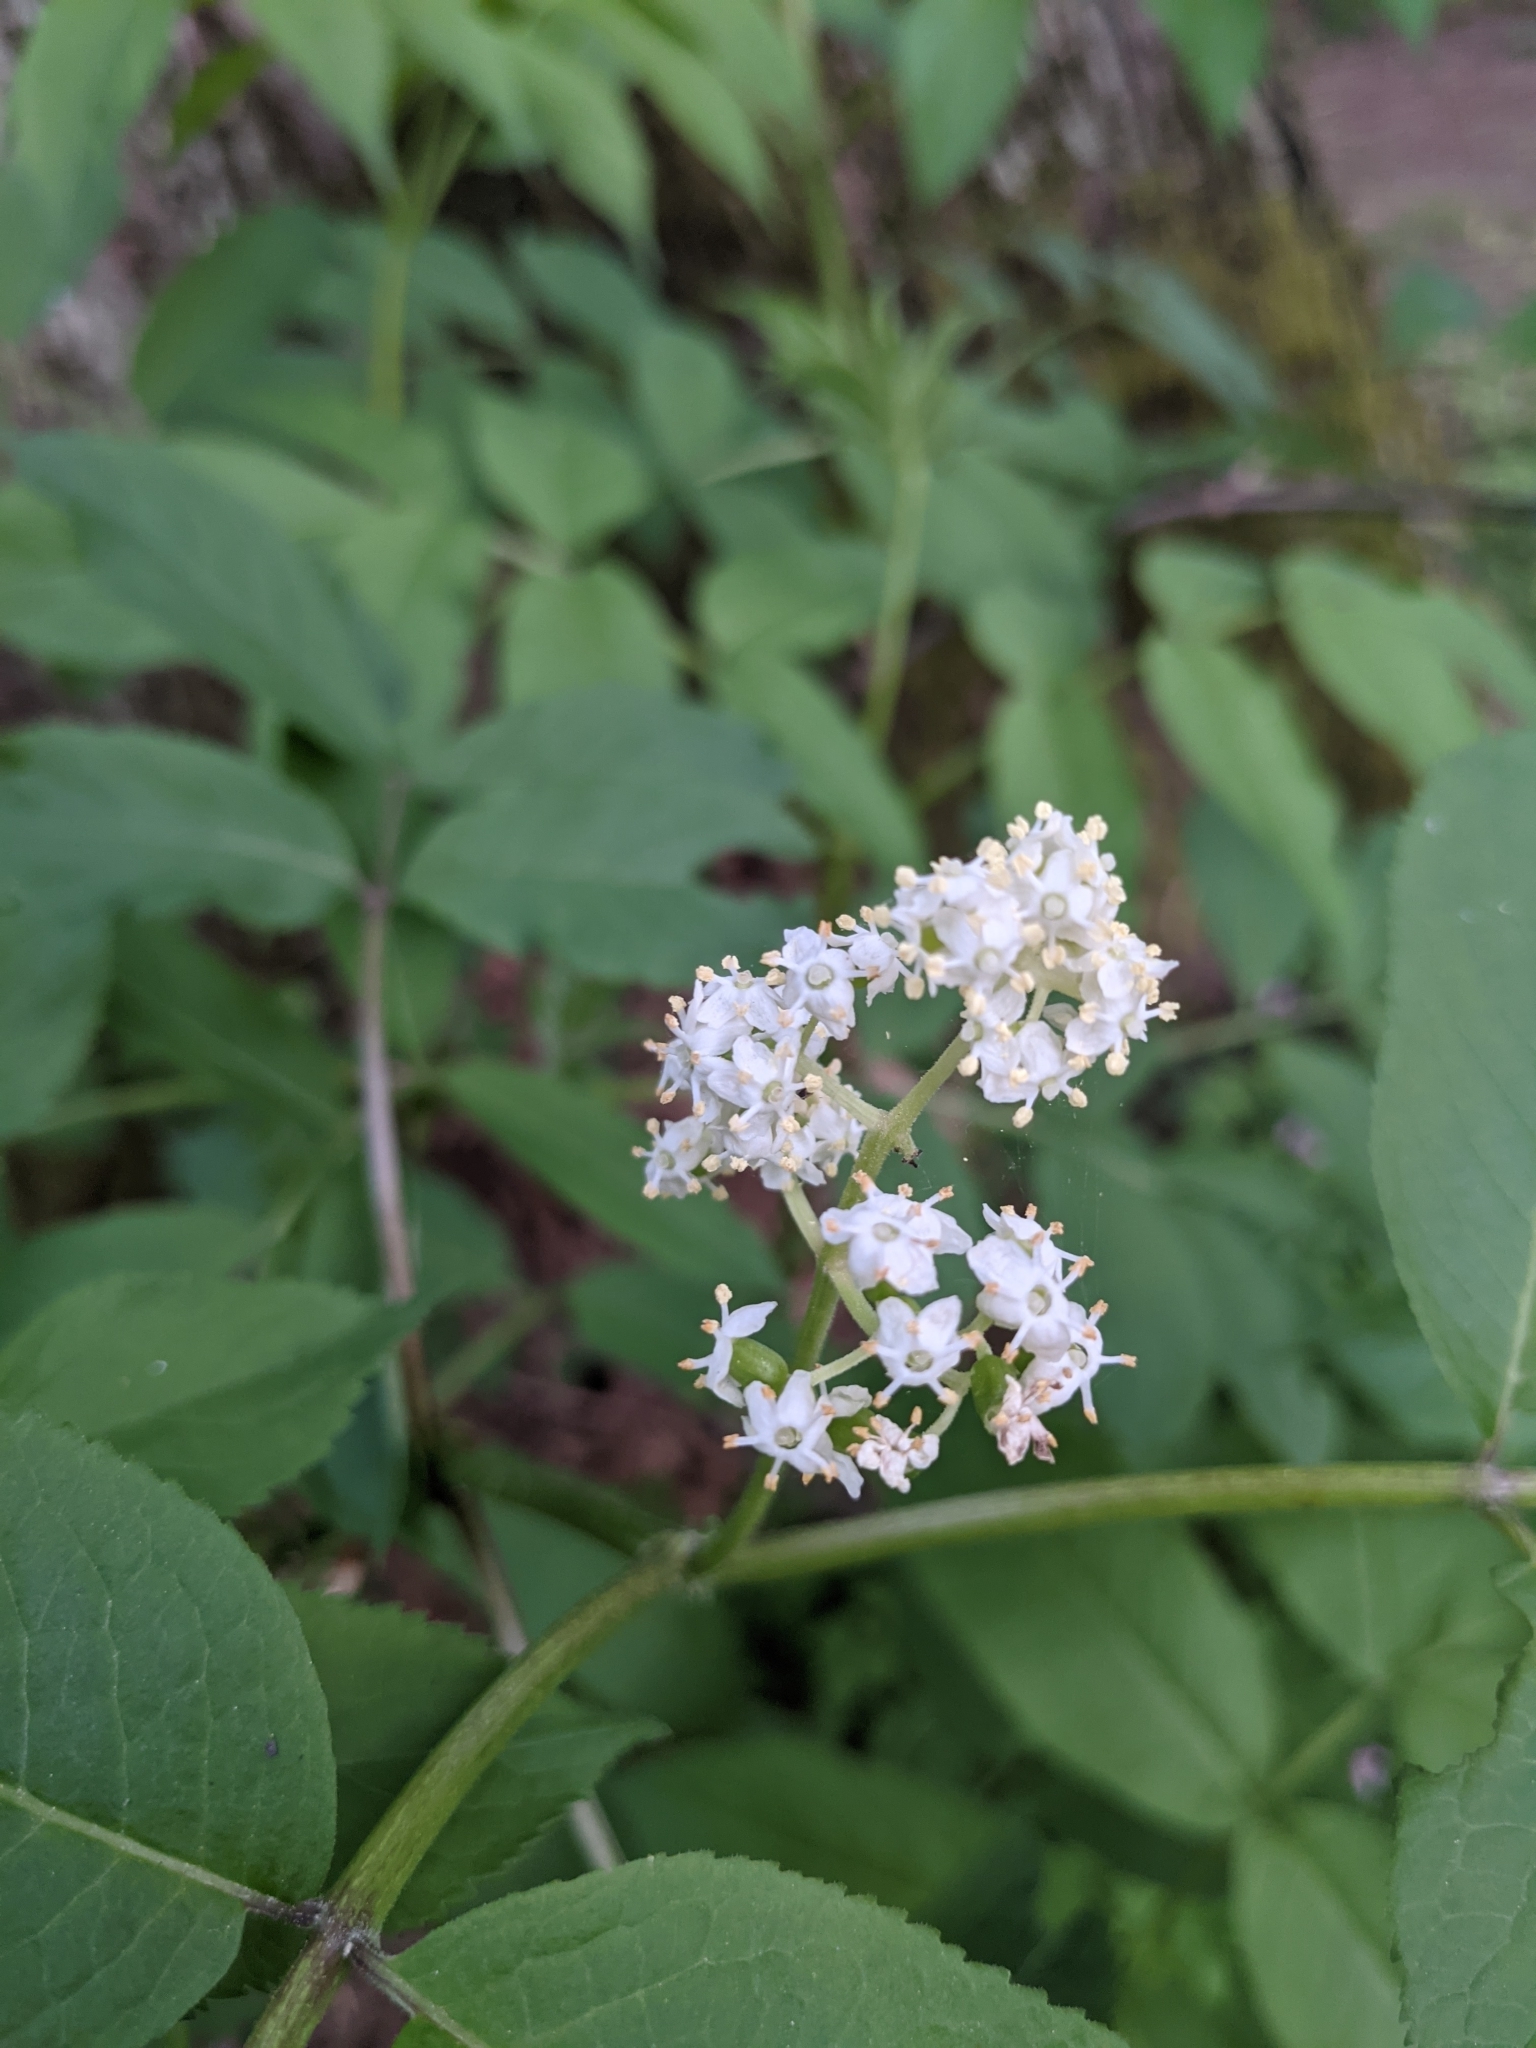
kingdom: Plantae
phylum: Tracheophyta
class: Magnoliopsida
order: Dipsacales
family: Viburnaceae
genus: Sambucus
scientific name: Sambucus racemosa
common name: Red-berried elder
